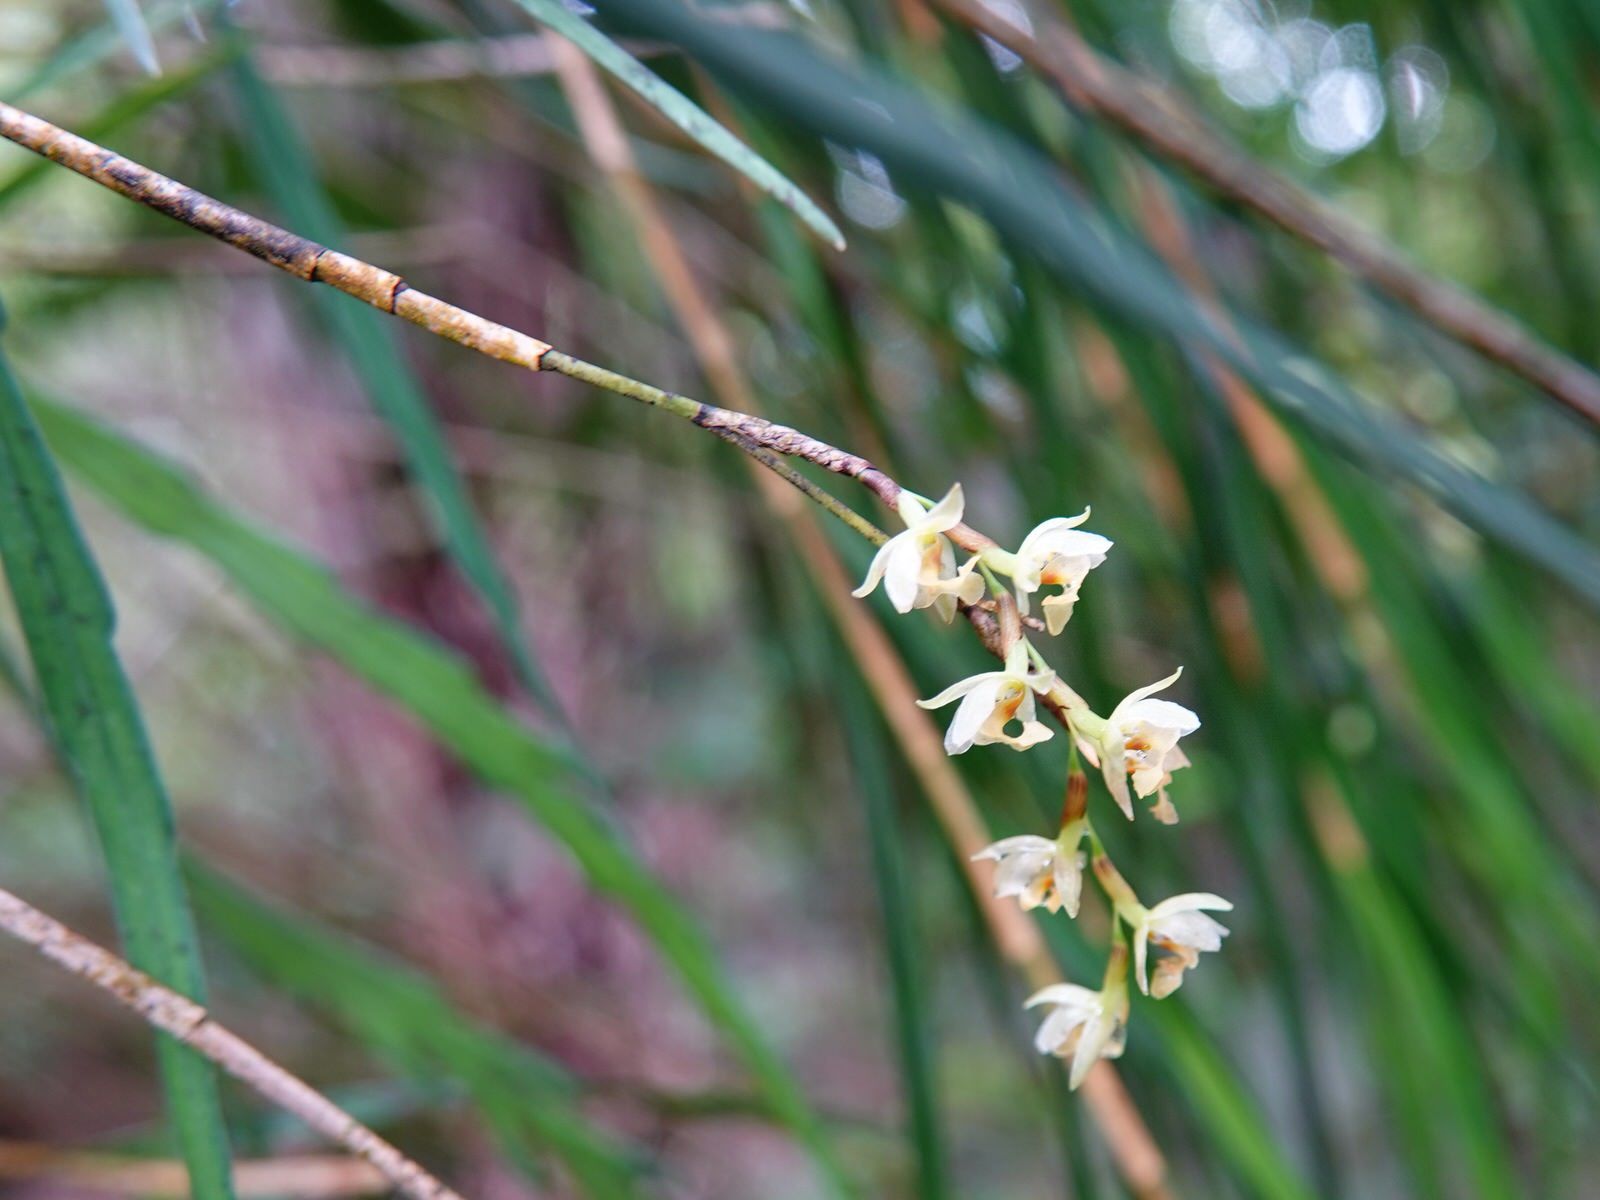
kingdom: Plantae
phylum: Tracheophyta
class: Liliopsida
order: Asparagales
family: Orchidaceae
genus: Earina
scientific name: Earina mucronata
